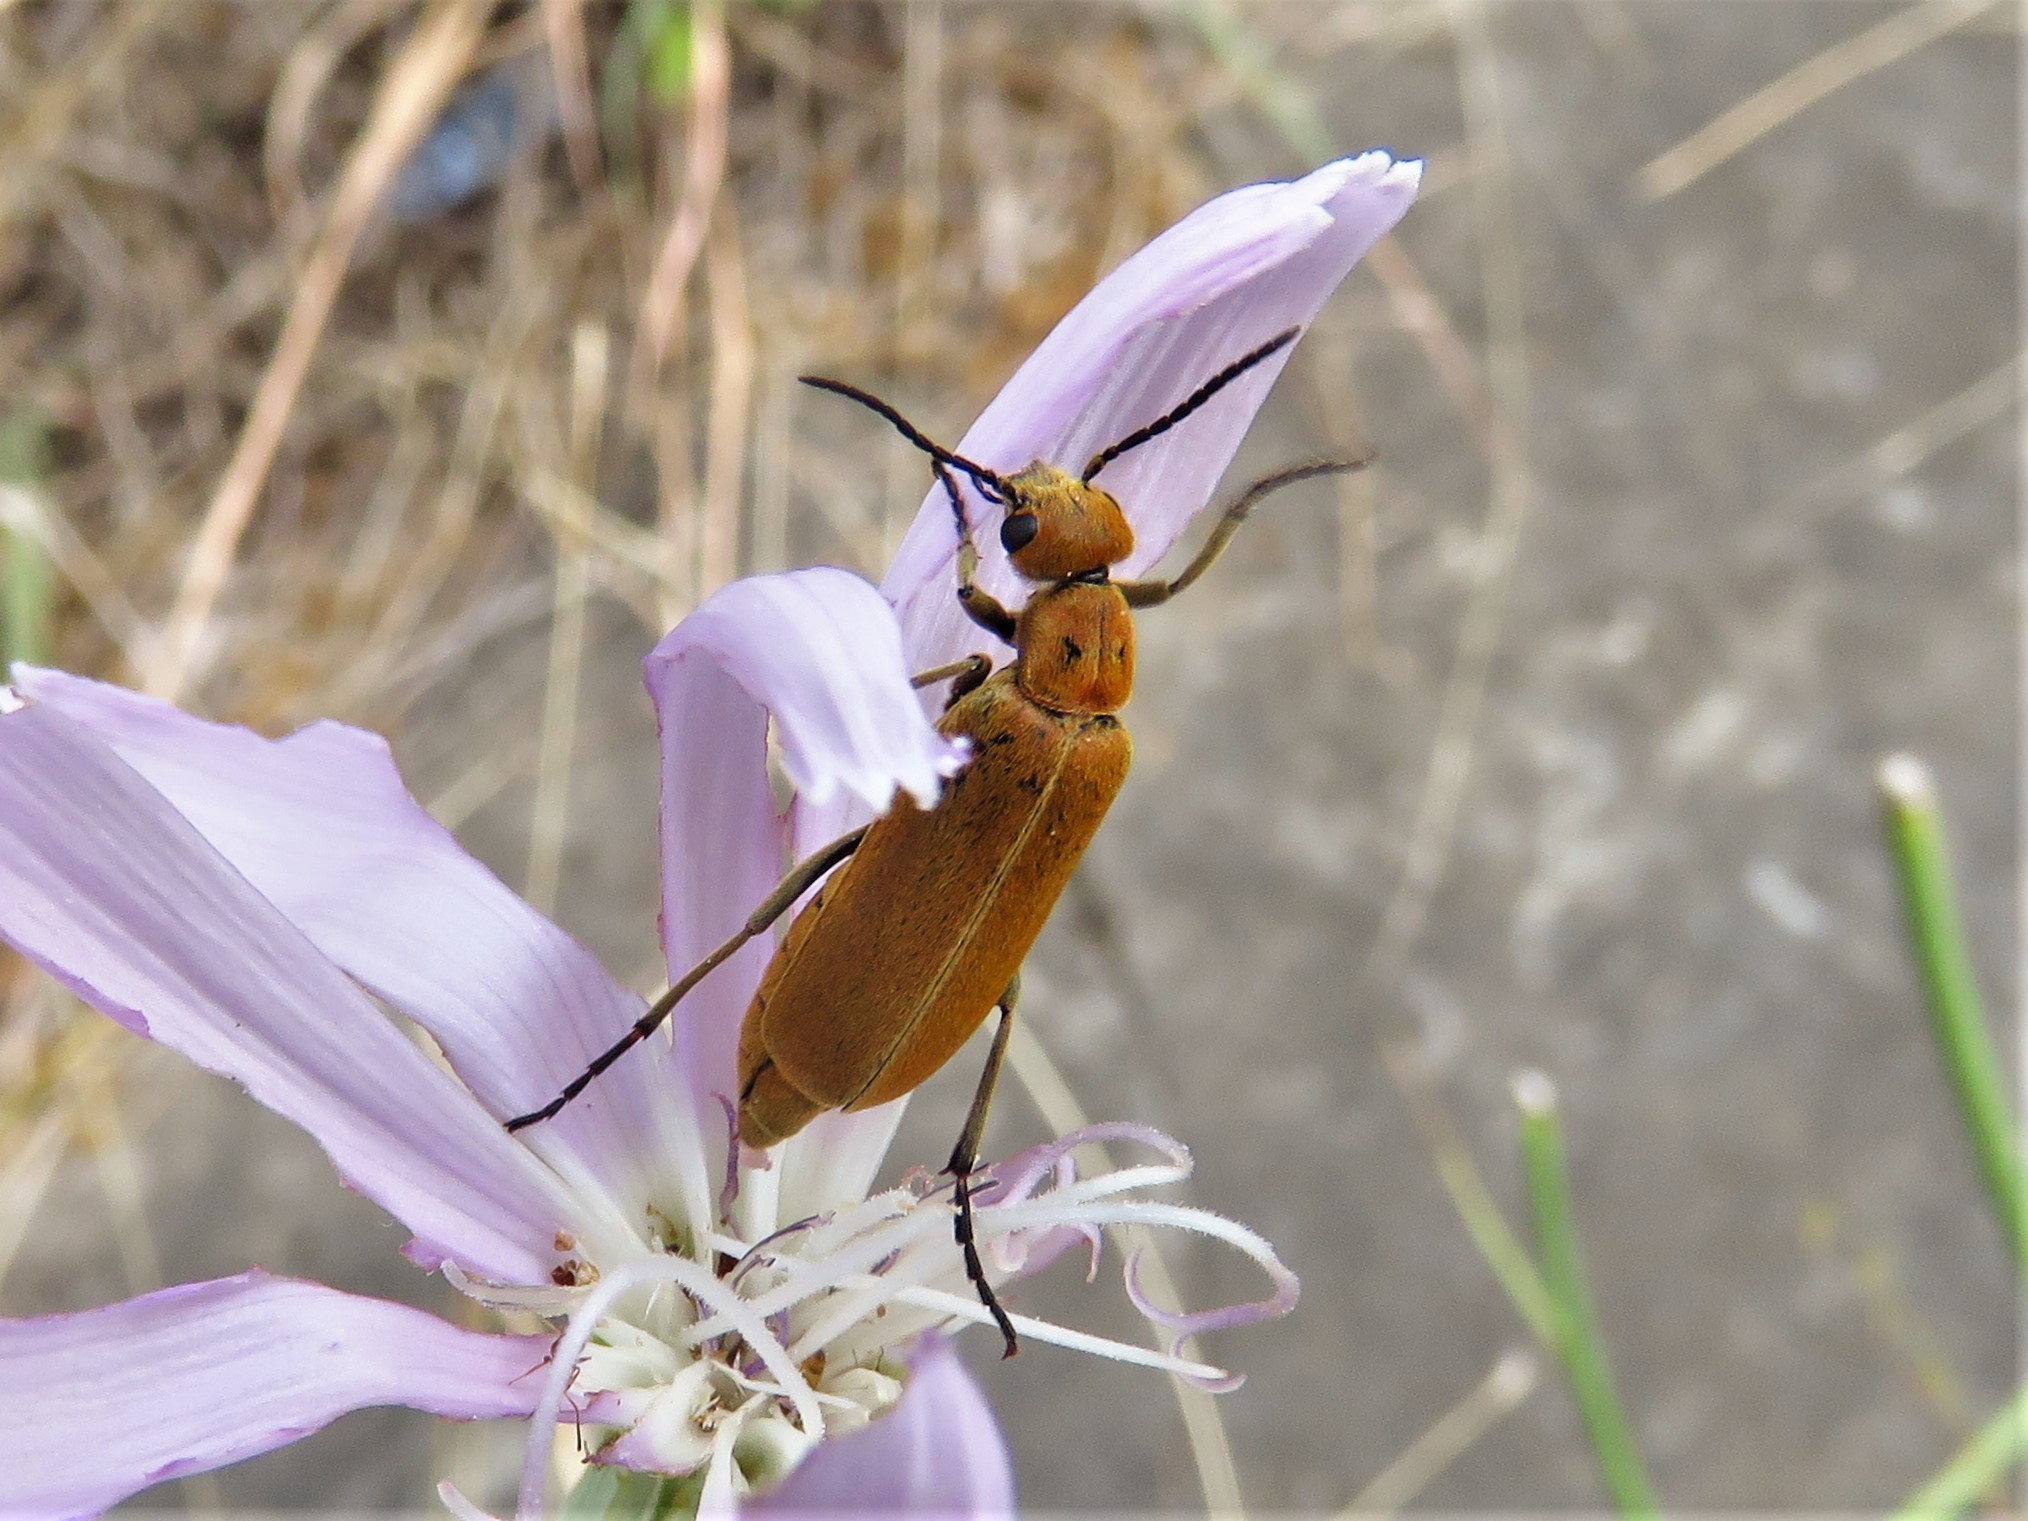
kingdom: Animalia
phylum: Arthropoda
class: Insecta
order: Coleoptera
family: Meloidae
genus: Epicauta
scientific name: Epicauta callosa
